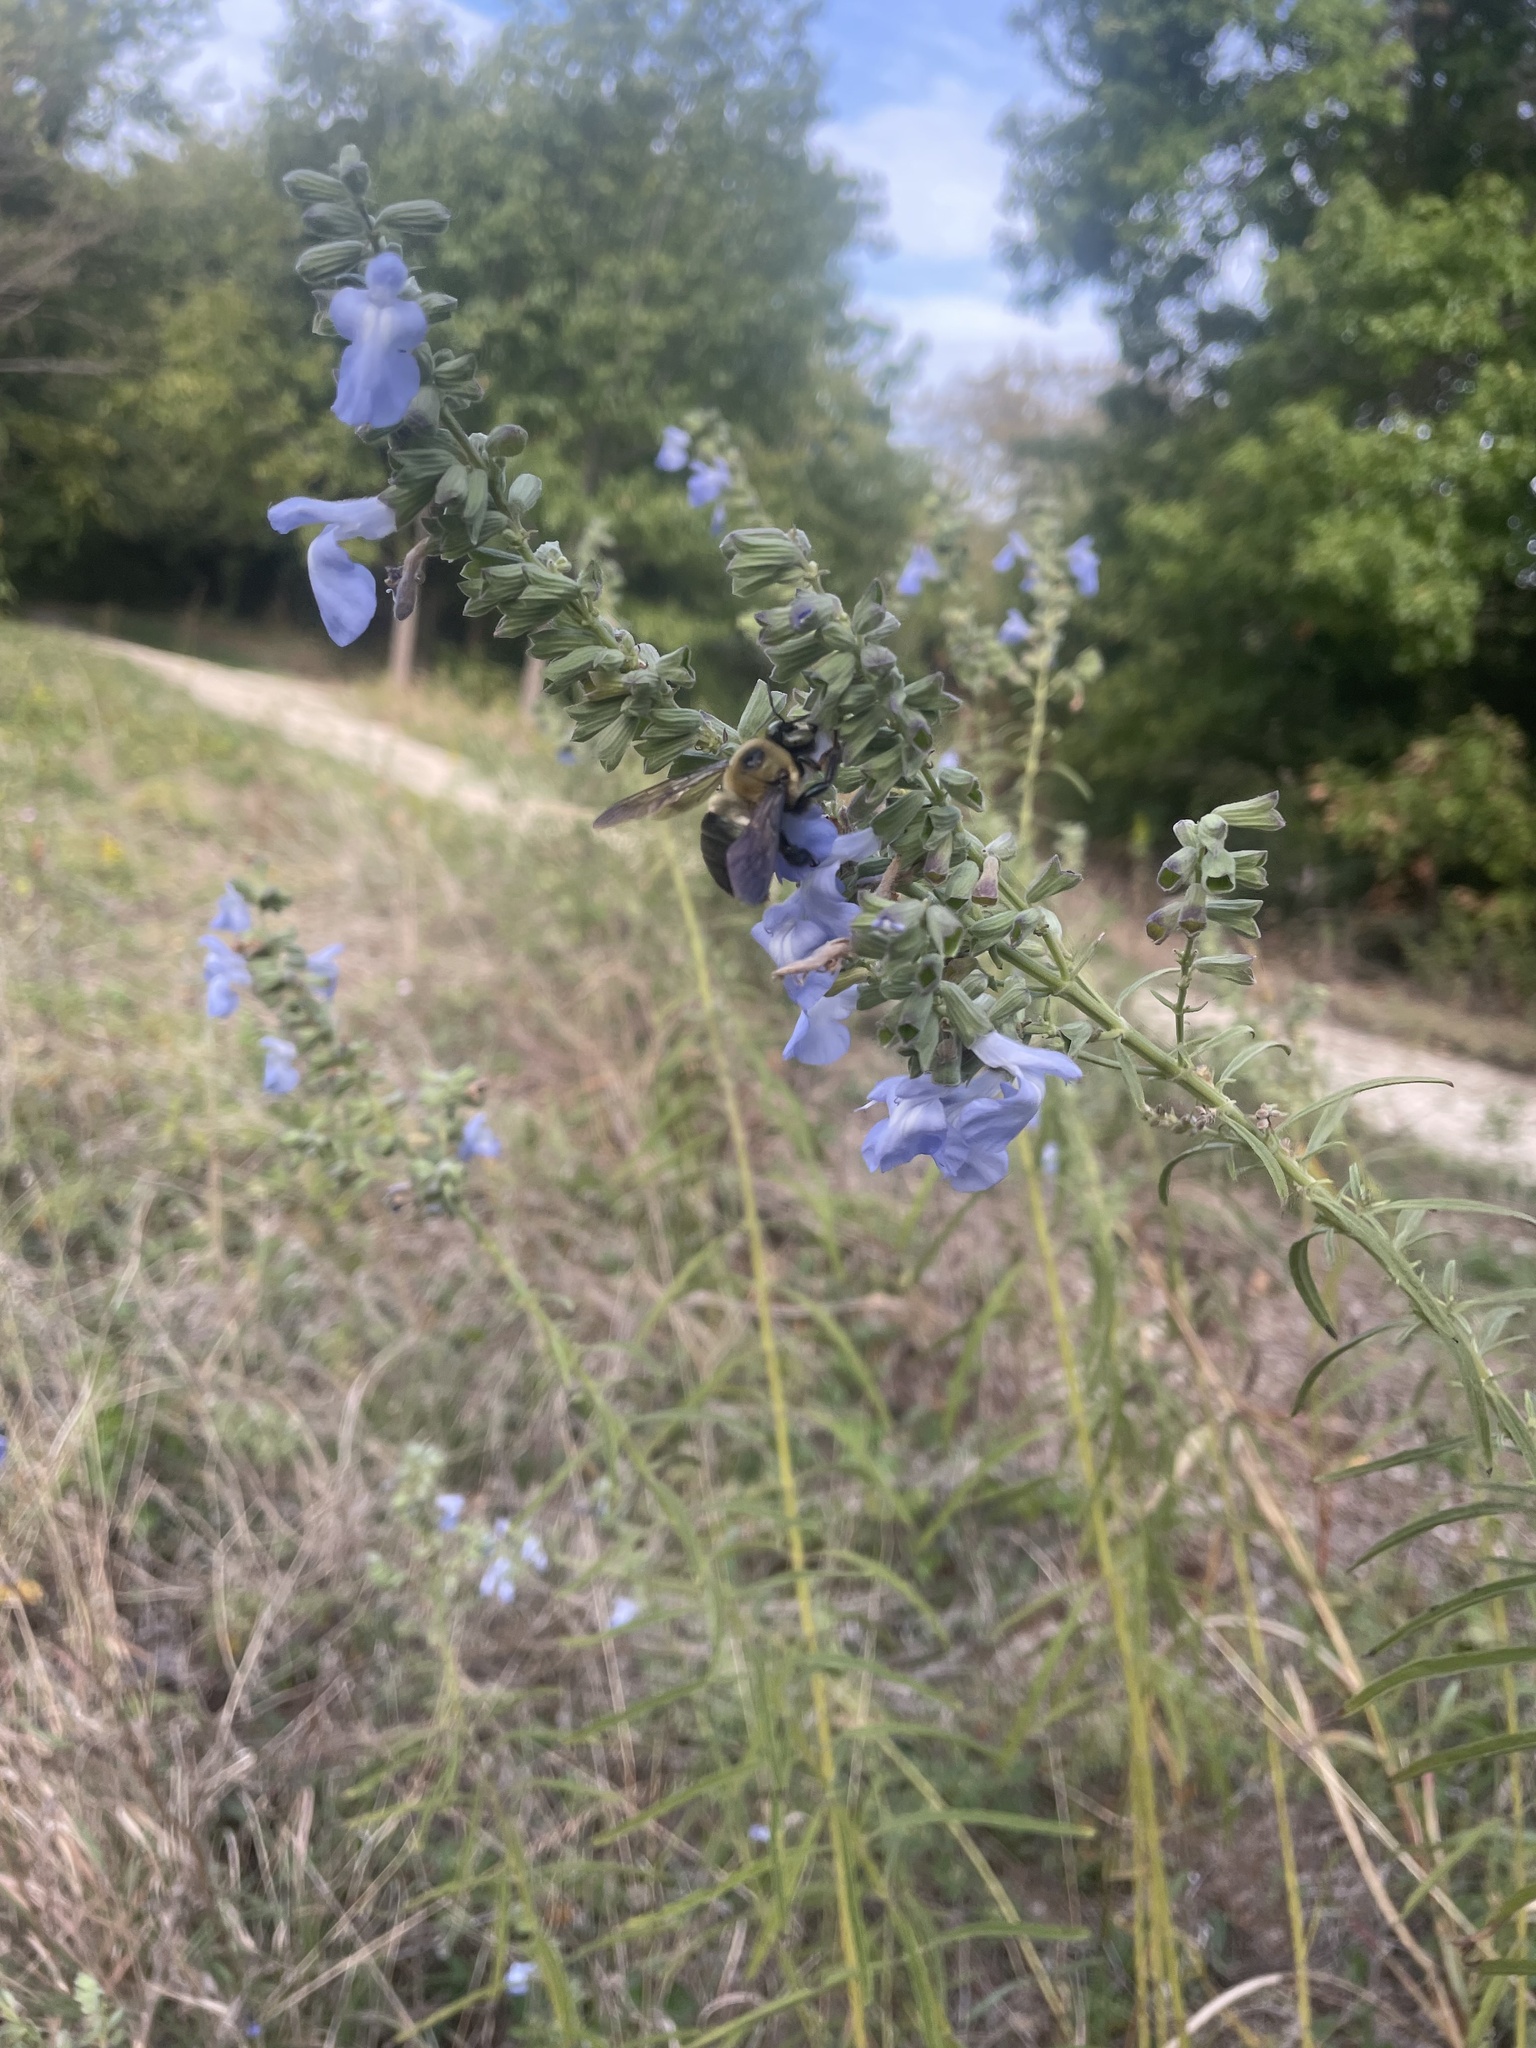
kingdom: Animalia
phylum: Arthropoda
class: Insecta
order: Hymenoptera
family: Apidae
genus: Xylocopa
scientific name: Xylocopa virginica
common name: Carpenter bee
